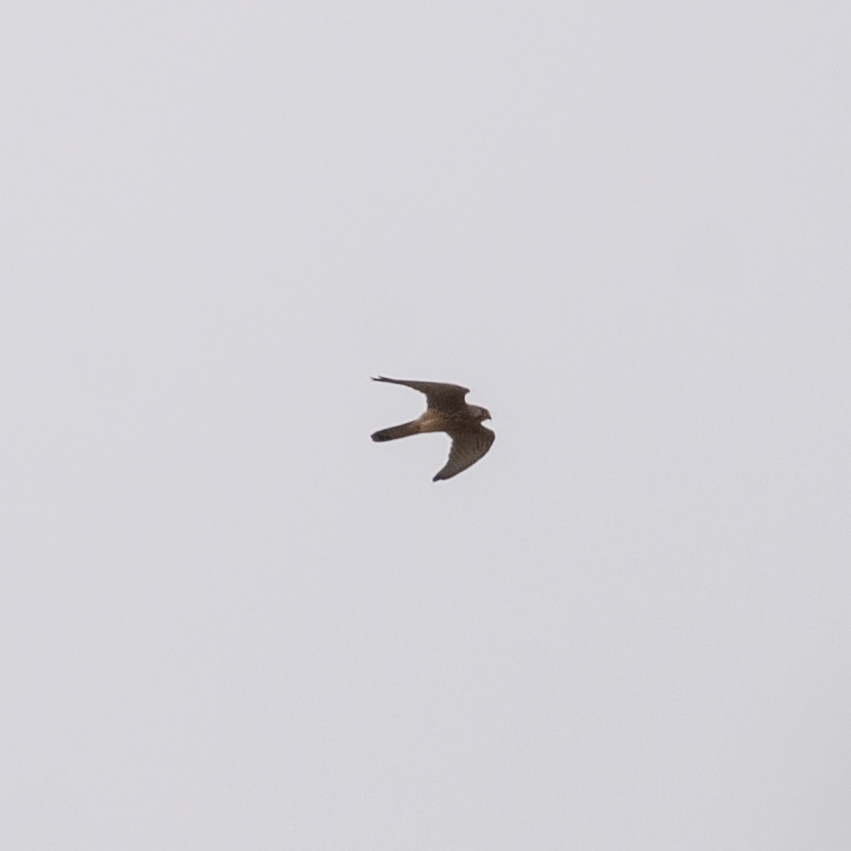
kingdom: Animalia
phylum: Chordata
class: Aves
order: Falconiformes
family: Falconidae
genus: Falco
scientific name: Falco tinnunculus
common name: Common kestrel
